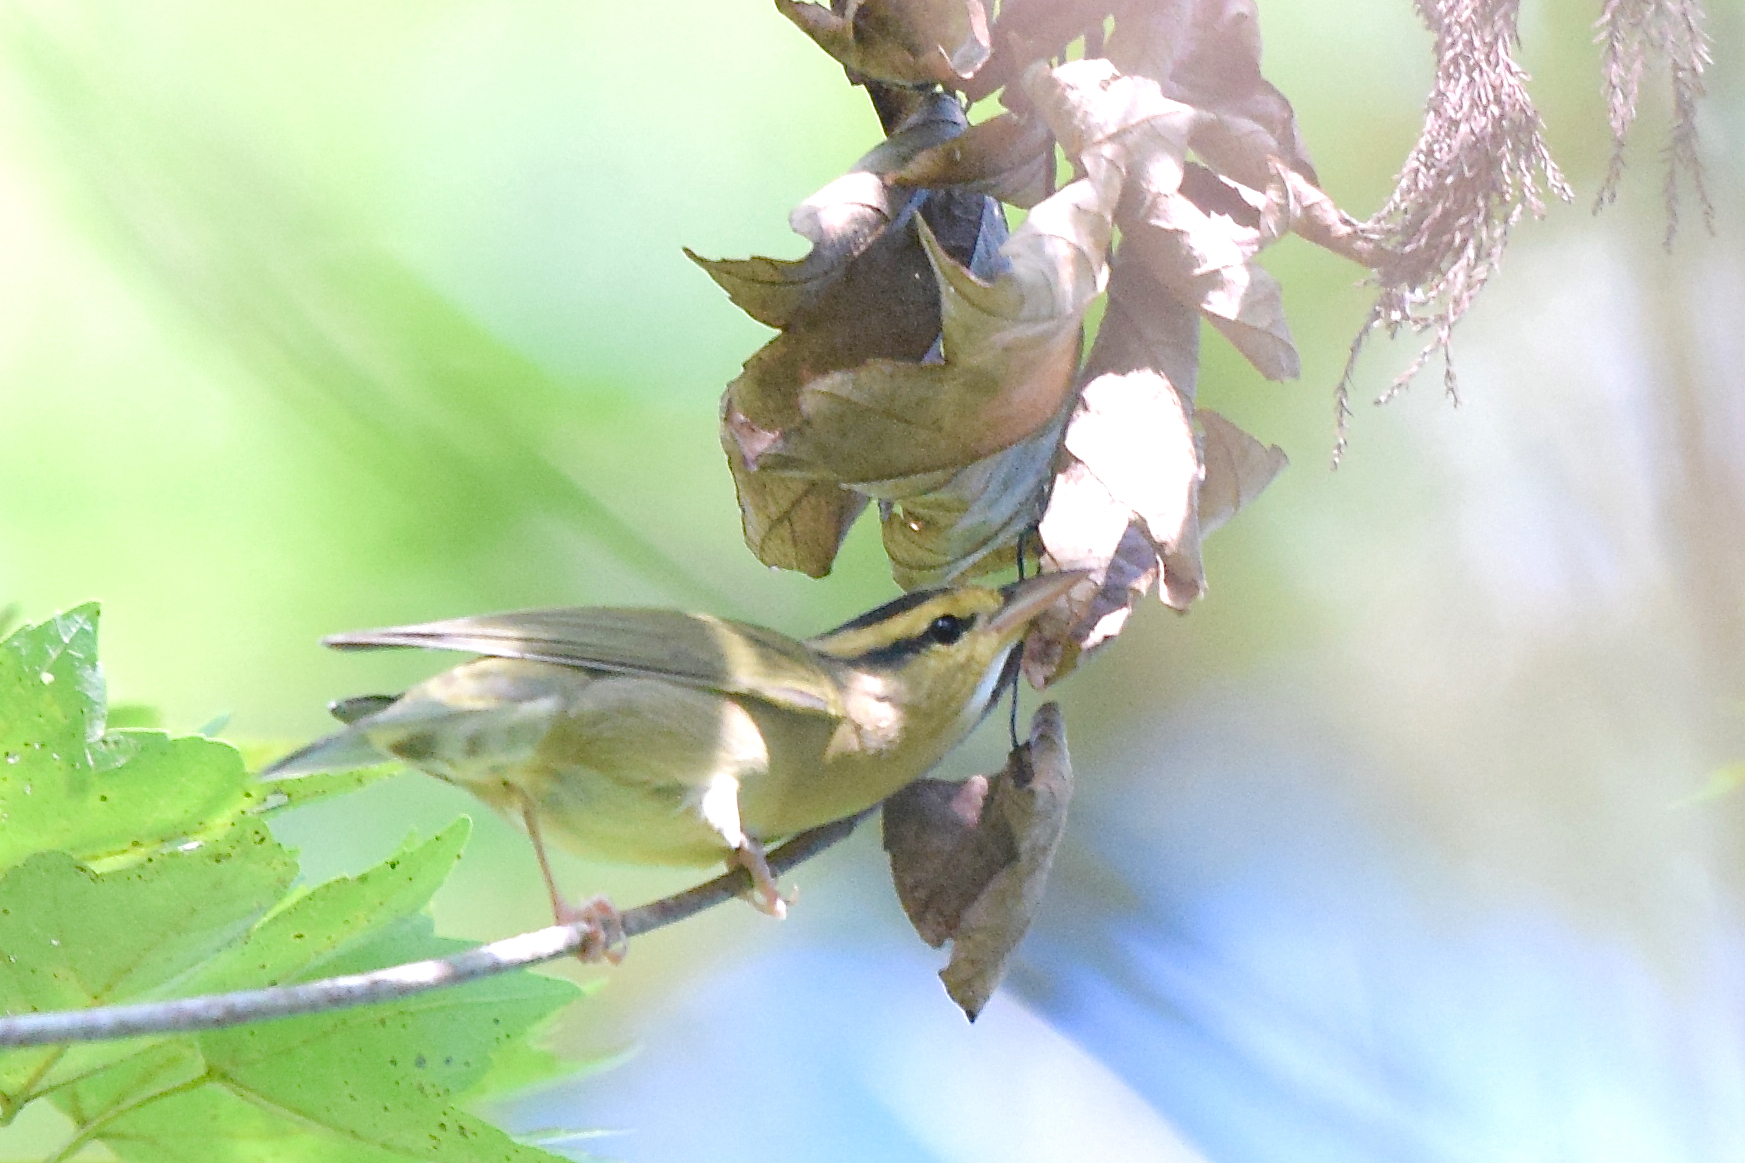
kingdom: Animalia
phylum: Chordata
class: Aves
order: Passeriformes
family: Parulidae
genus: Helmitheros
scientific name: Helmitheros vermivorum
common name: Worm-eating warbler
